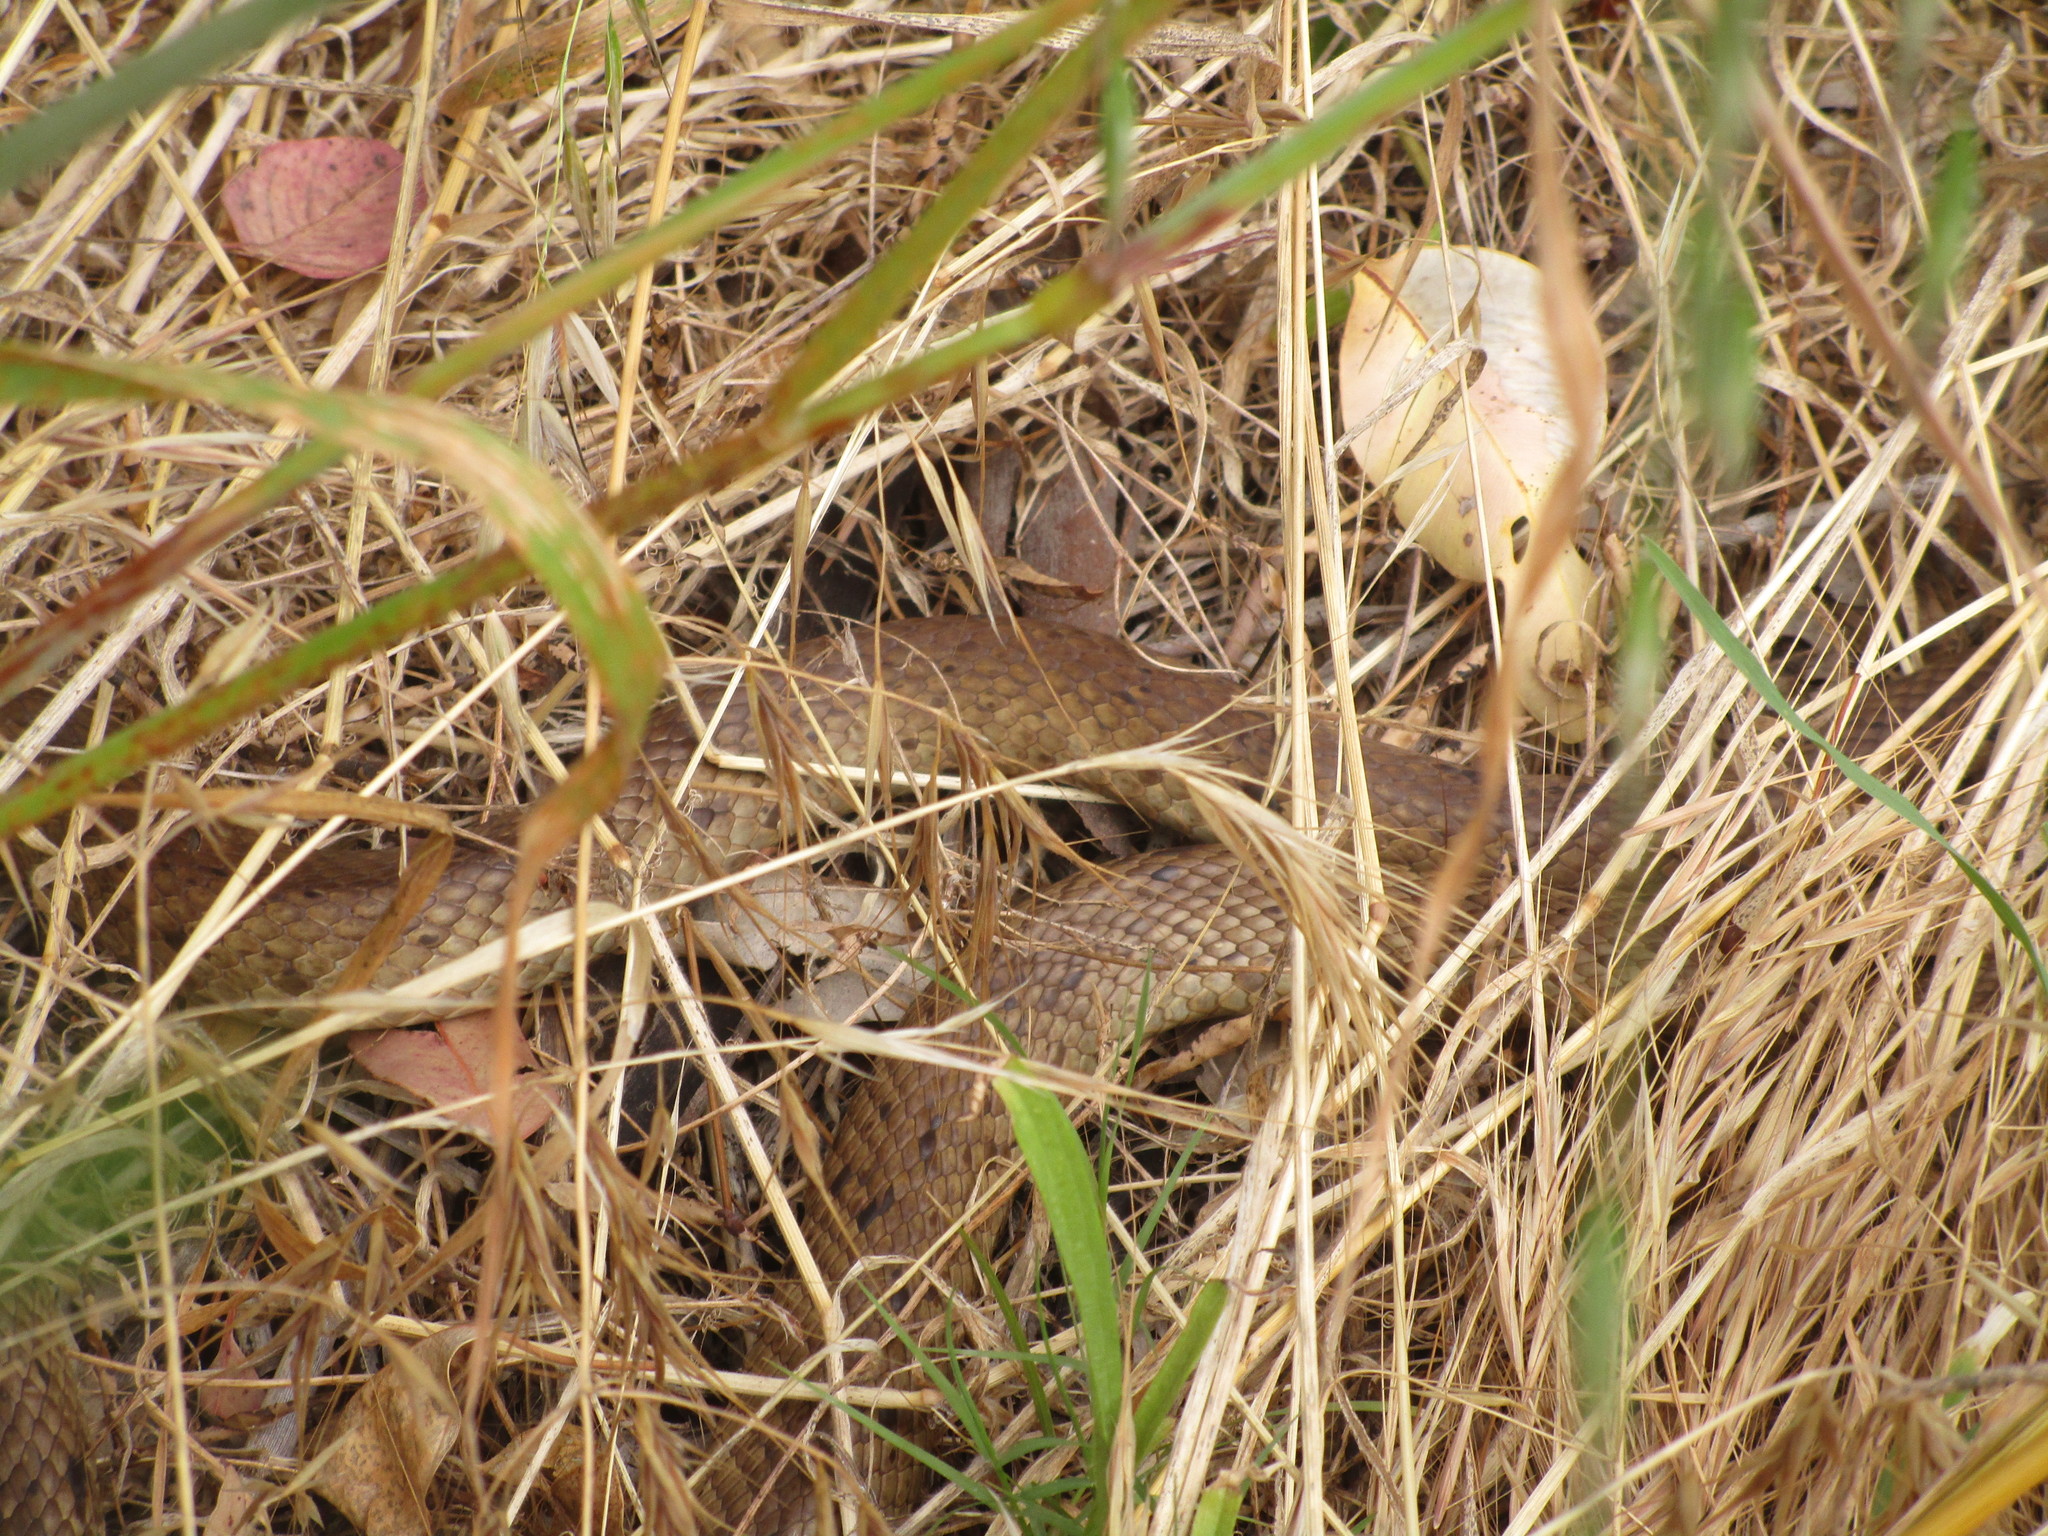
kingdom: Animalia
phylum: Chordata
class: Squamata
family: Elapidae
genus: Pseudonaja
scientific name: Pseudonaja affinis
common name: Dugite
